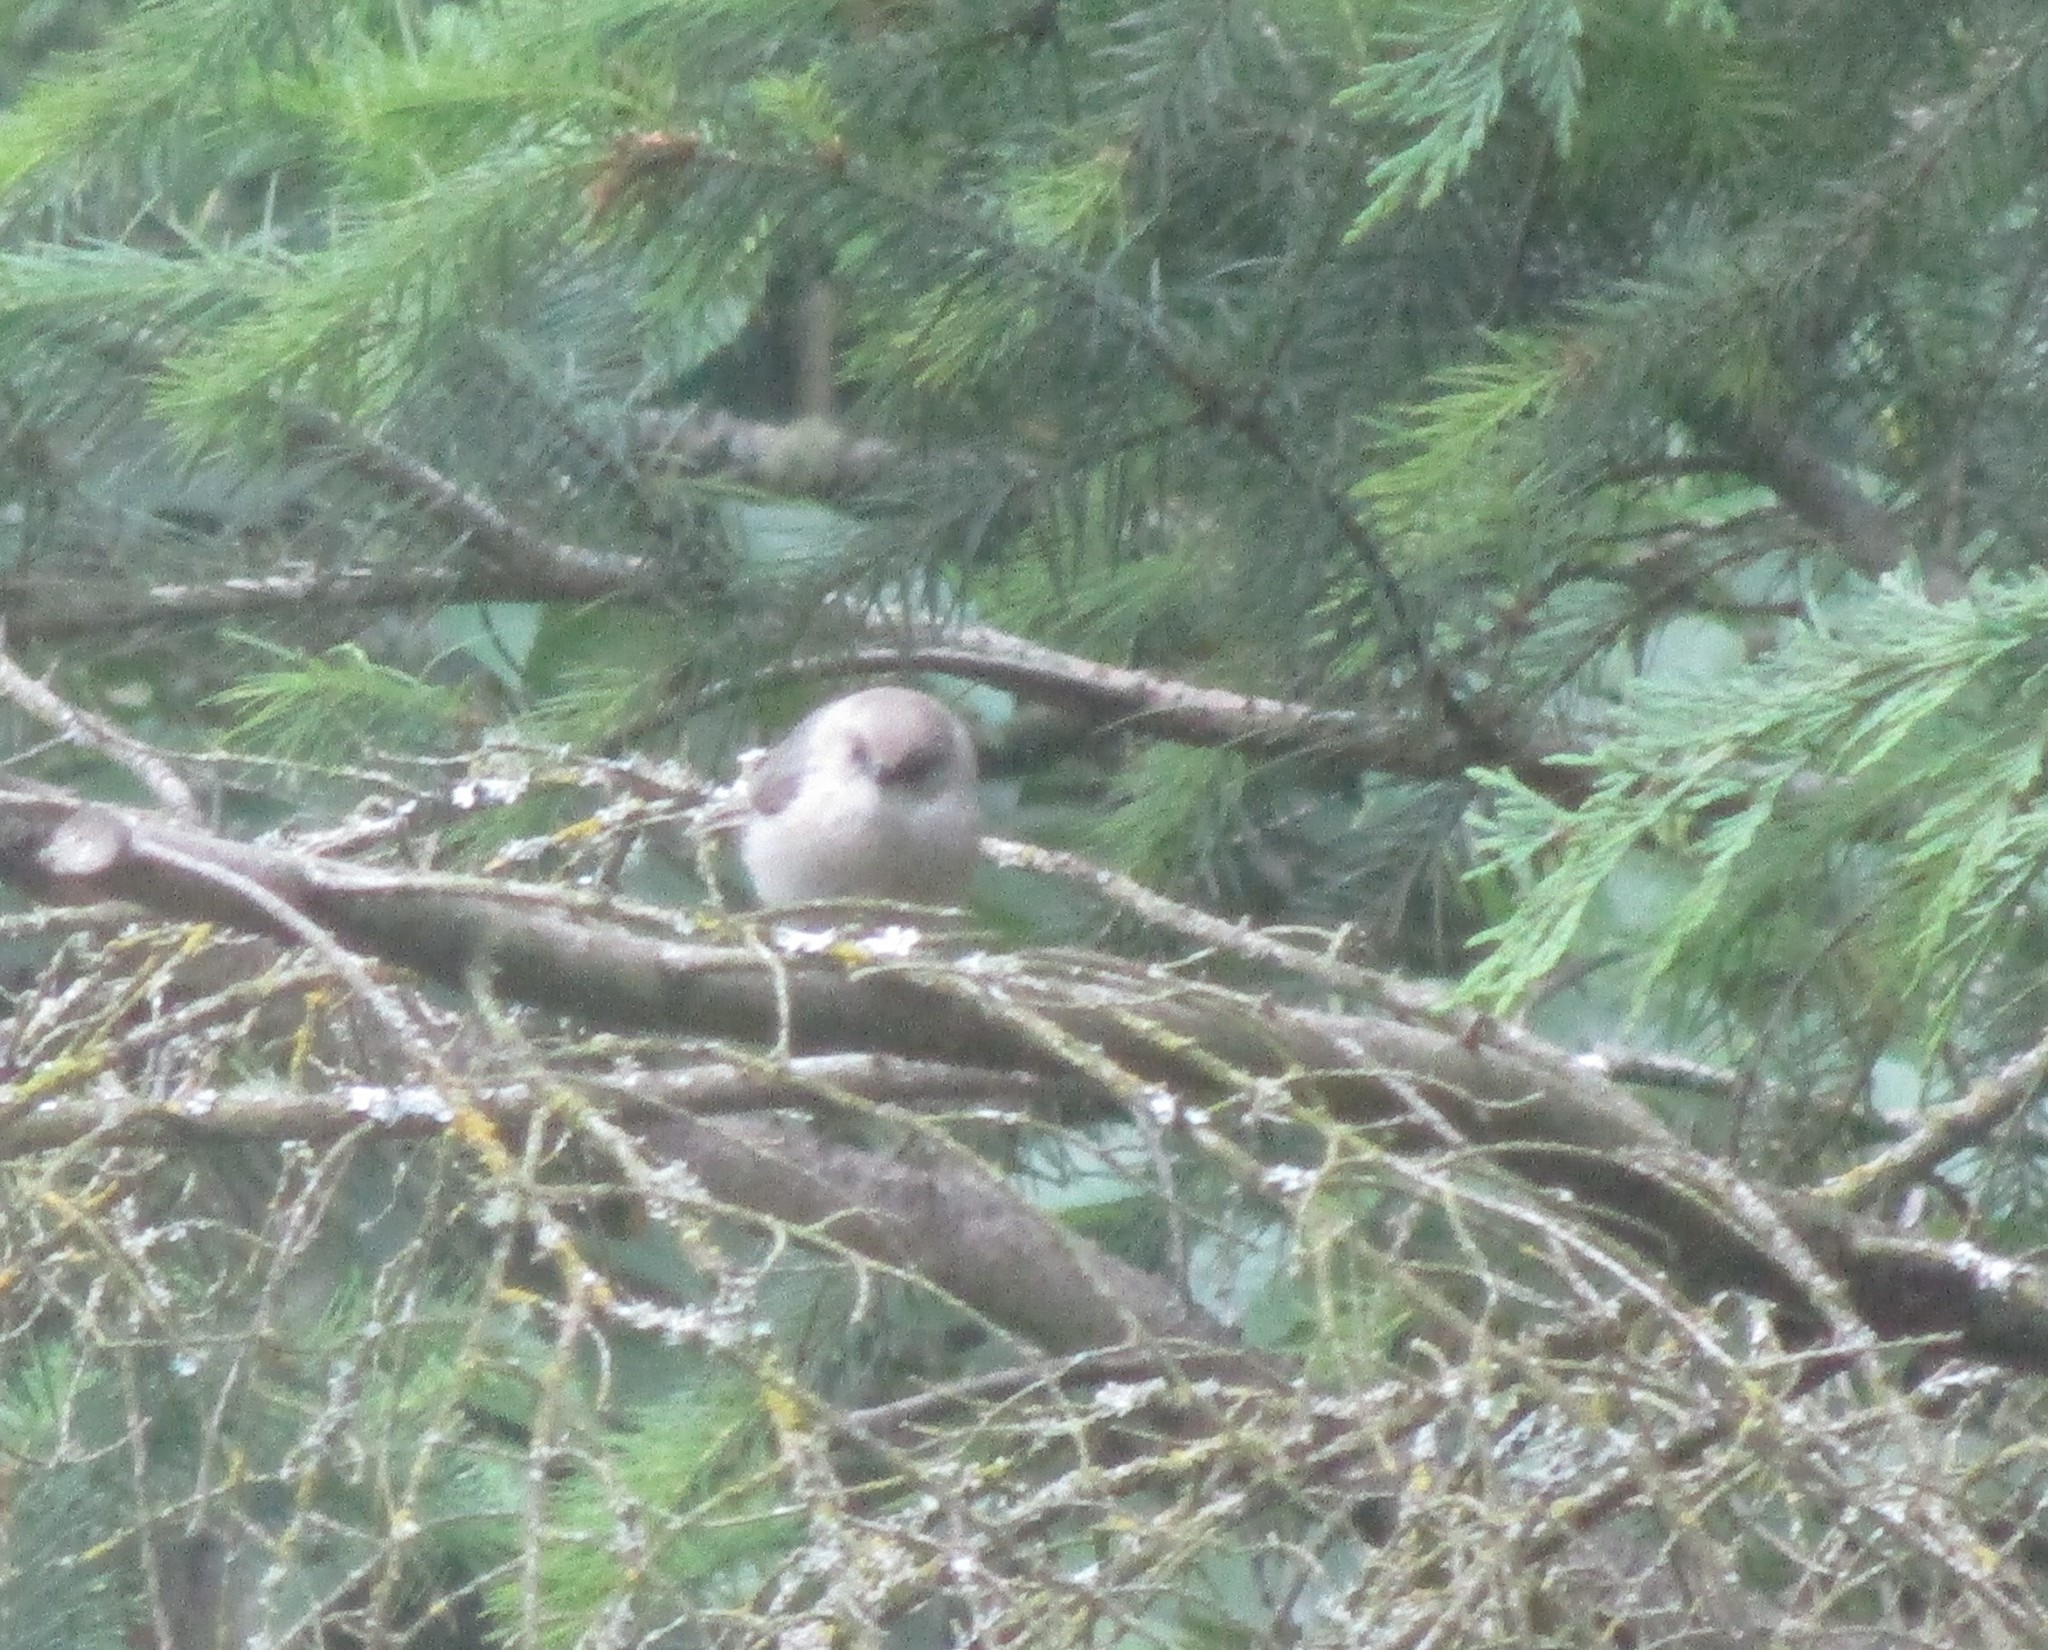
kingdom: Animalia
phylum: Chordata
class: Aves
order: Passeriformes
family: Aegithalidae
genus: Psaltriparus
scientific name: Psaltriparus minimus
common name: American bushtit
